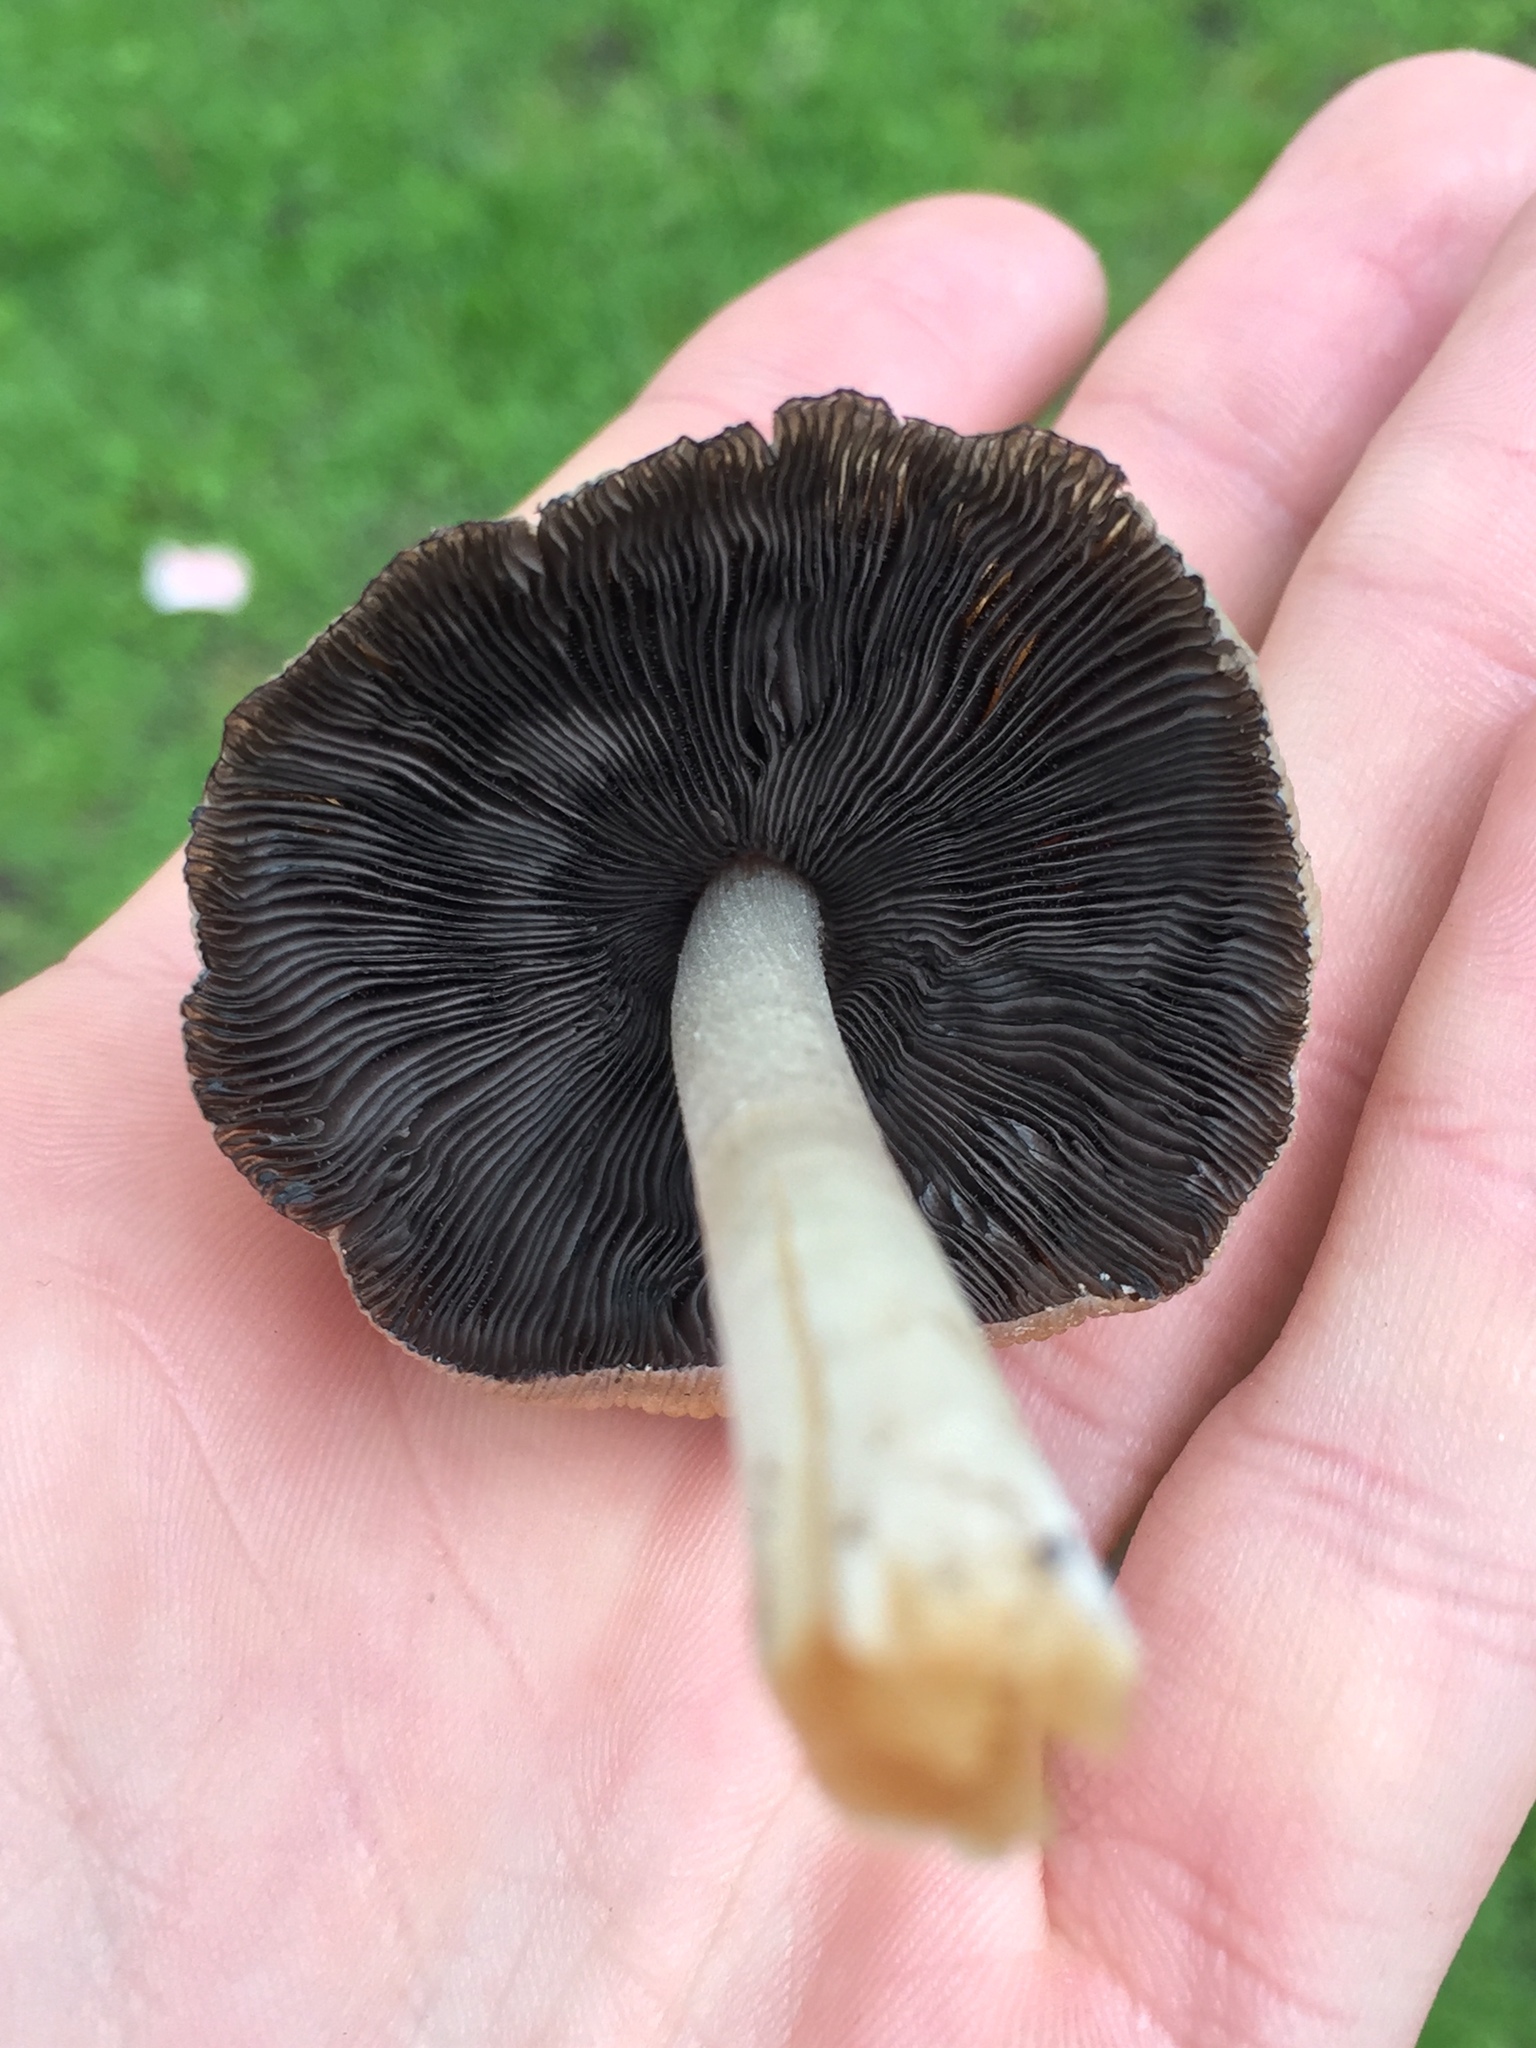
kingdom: Fungi
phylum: Basidiomycota
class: Agaricomycetes
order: Agaricales
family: Psathyrellaceae
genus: Coprinellus
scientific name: Coprinellus micaceus
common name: Glistening ink-cap
